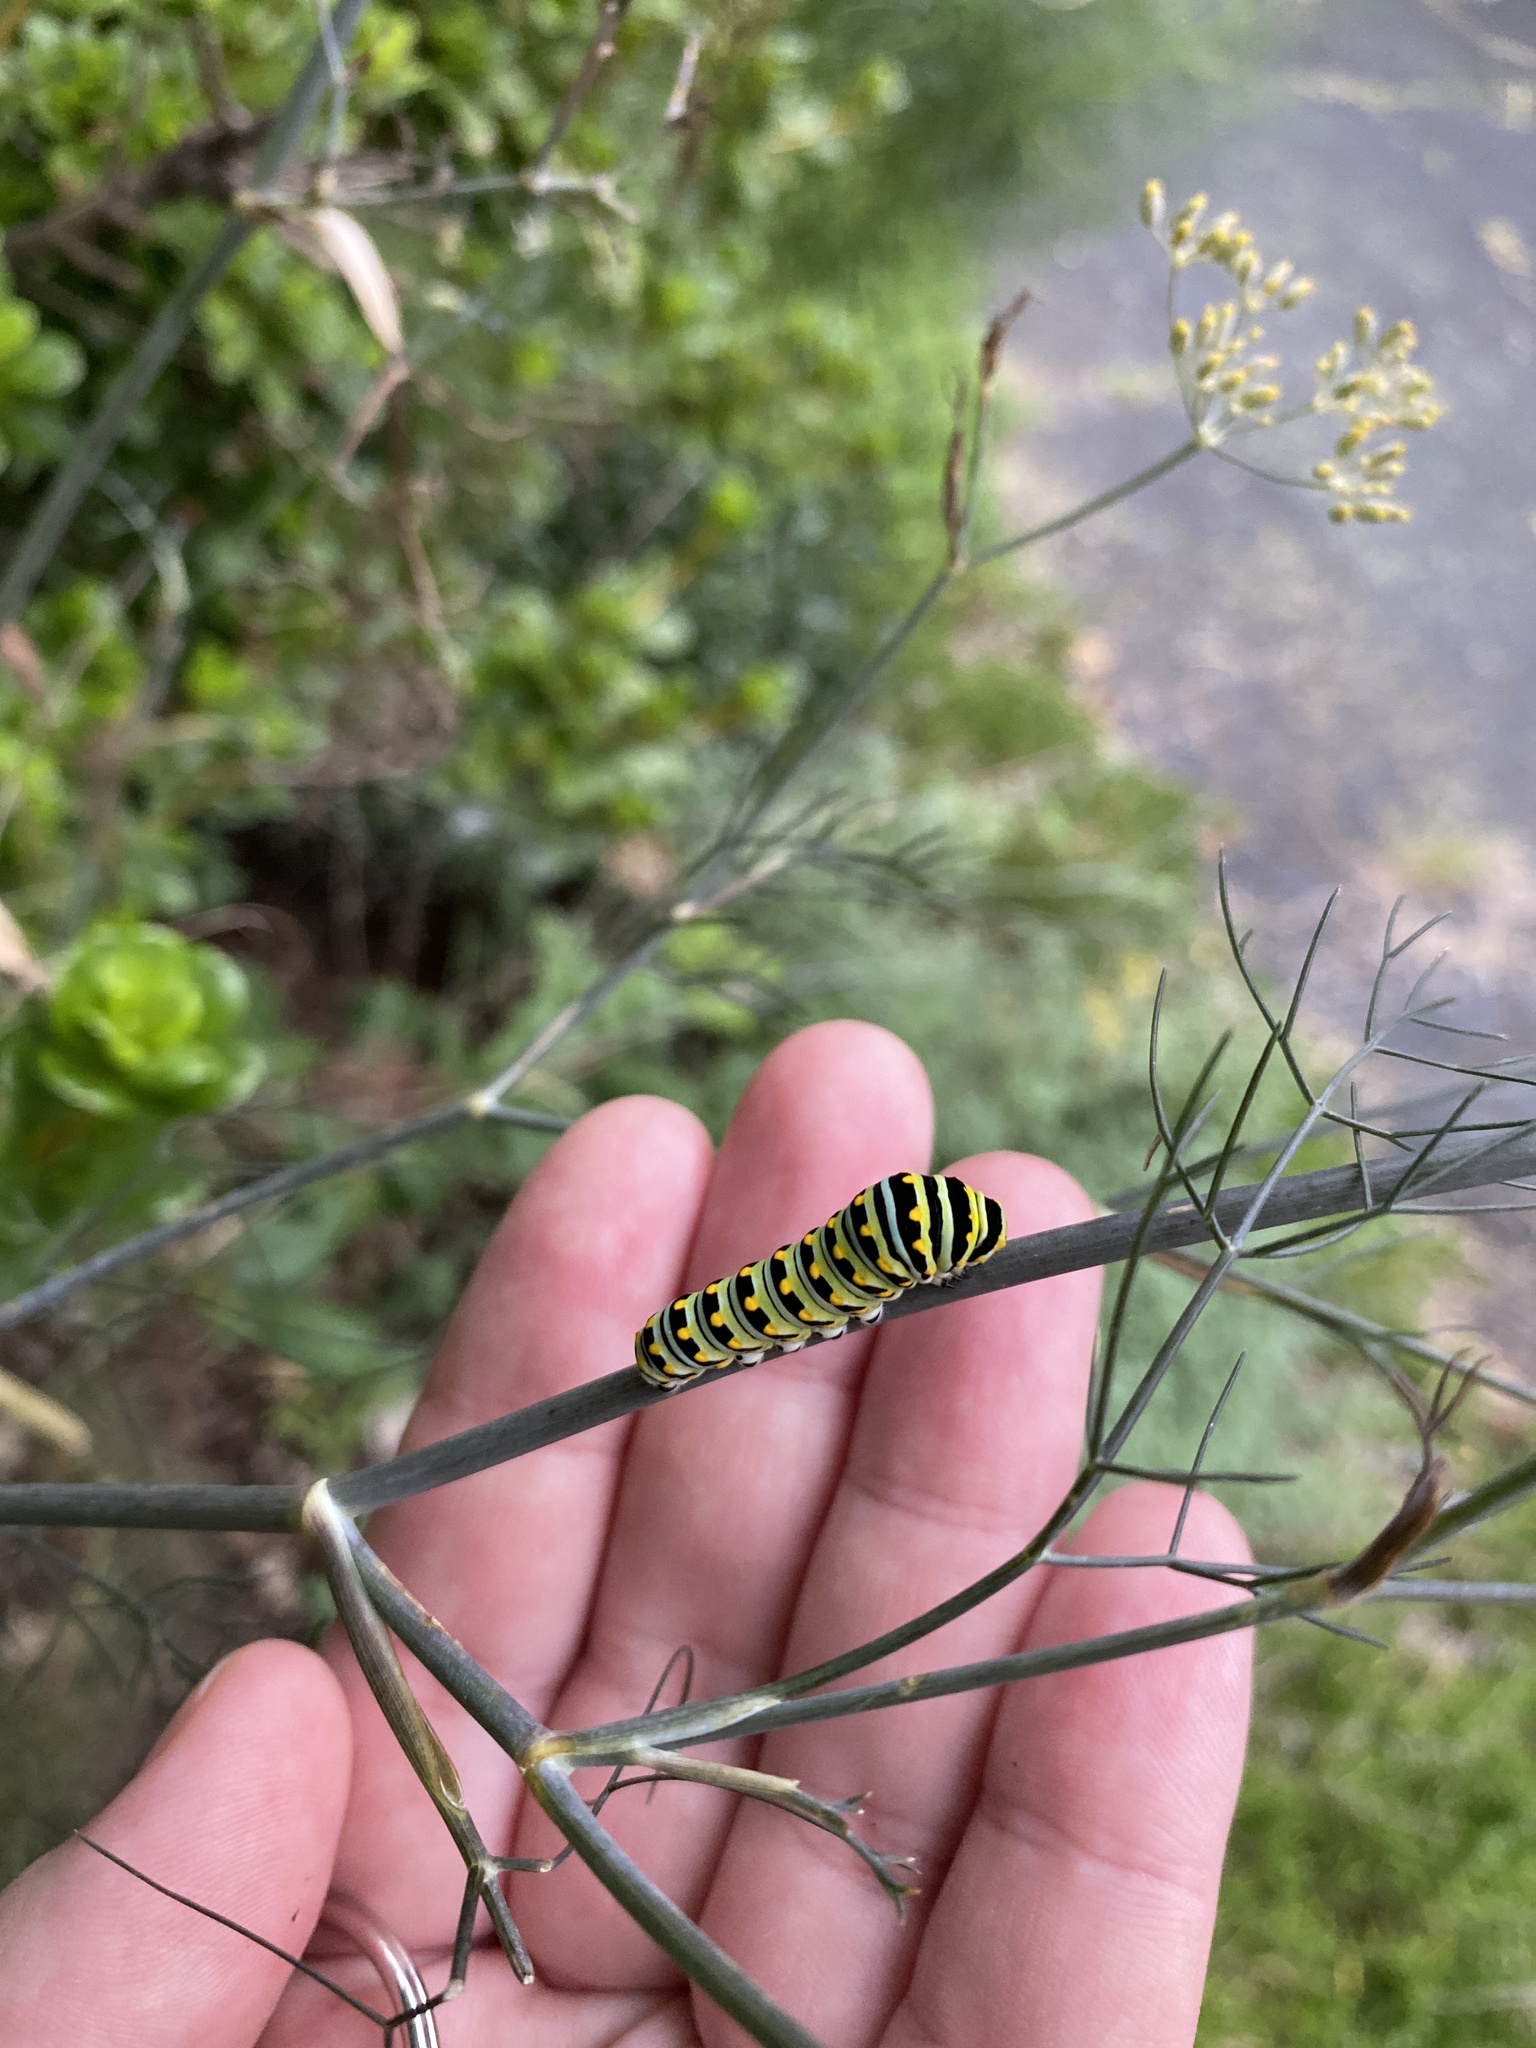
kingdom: Animalia
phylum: Arthropoda
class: Insecta
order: Lepidoptera
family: Papilionidae
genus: Papilio
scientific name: Papilio polyxenes
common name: Black swallowtail
